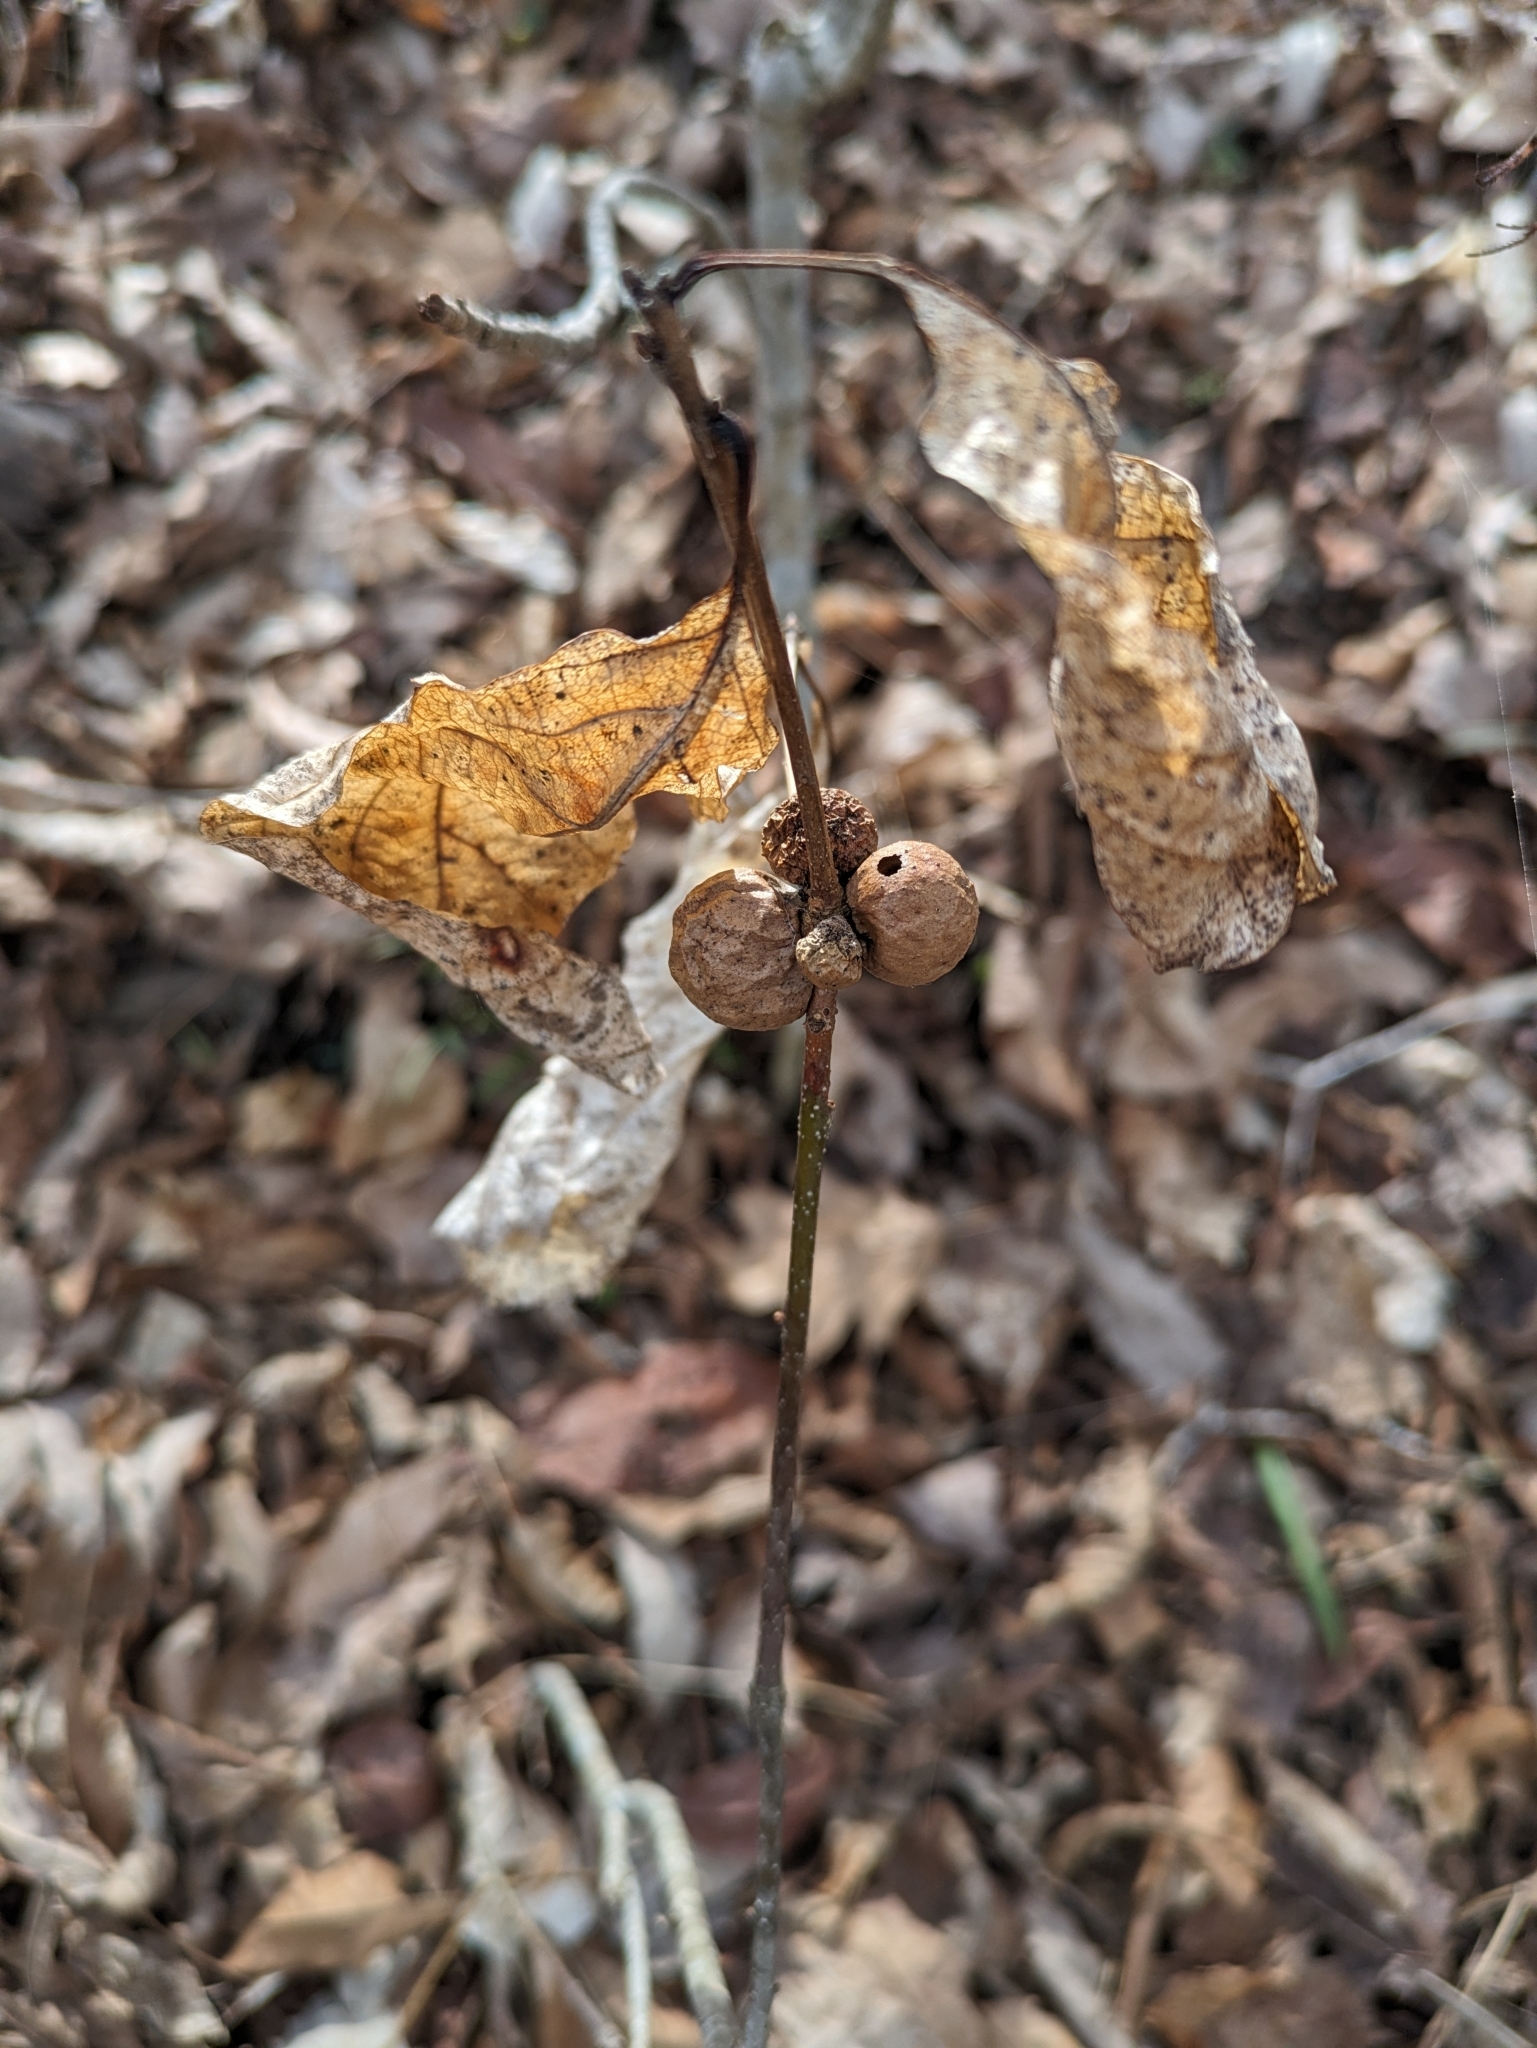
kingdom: Animalia
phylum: Arthropoda
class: Insecta
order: Hymenoptera
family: Cynipidae
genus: Disholcaspis
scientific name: Disholcaspis quercusglobulus
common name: Round bullet gall wasp
